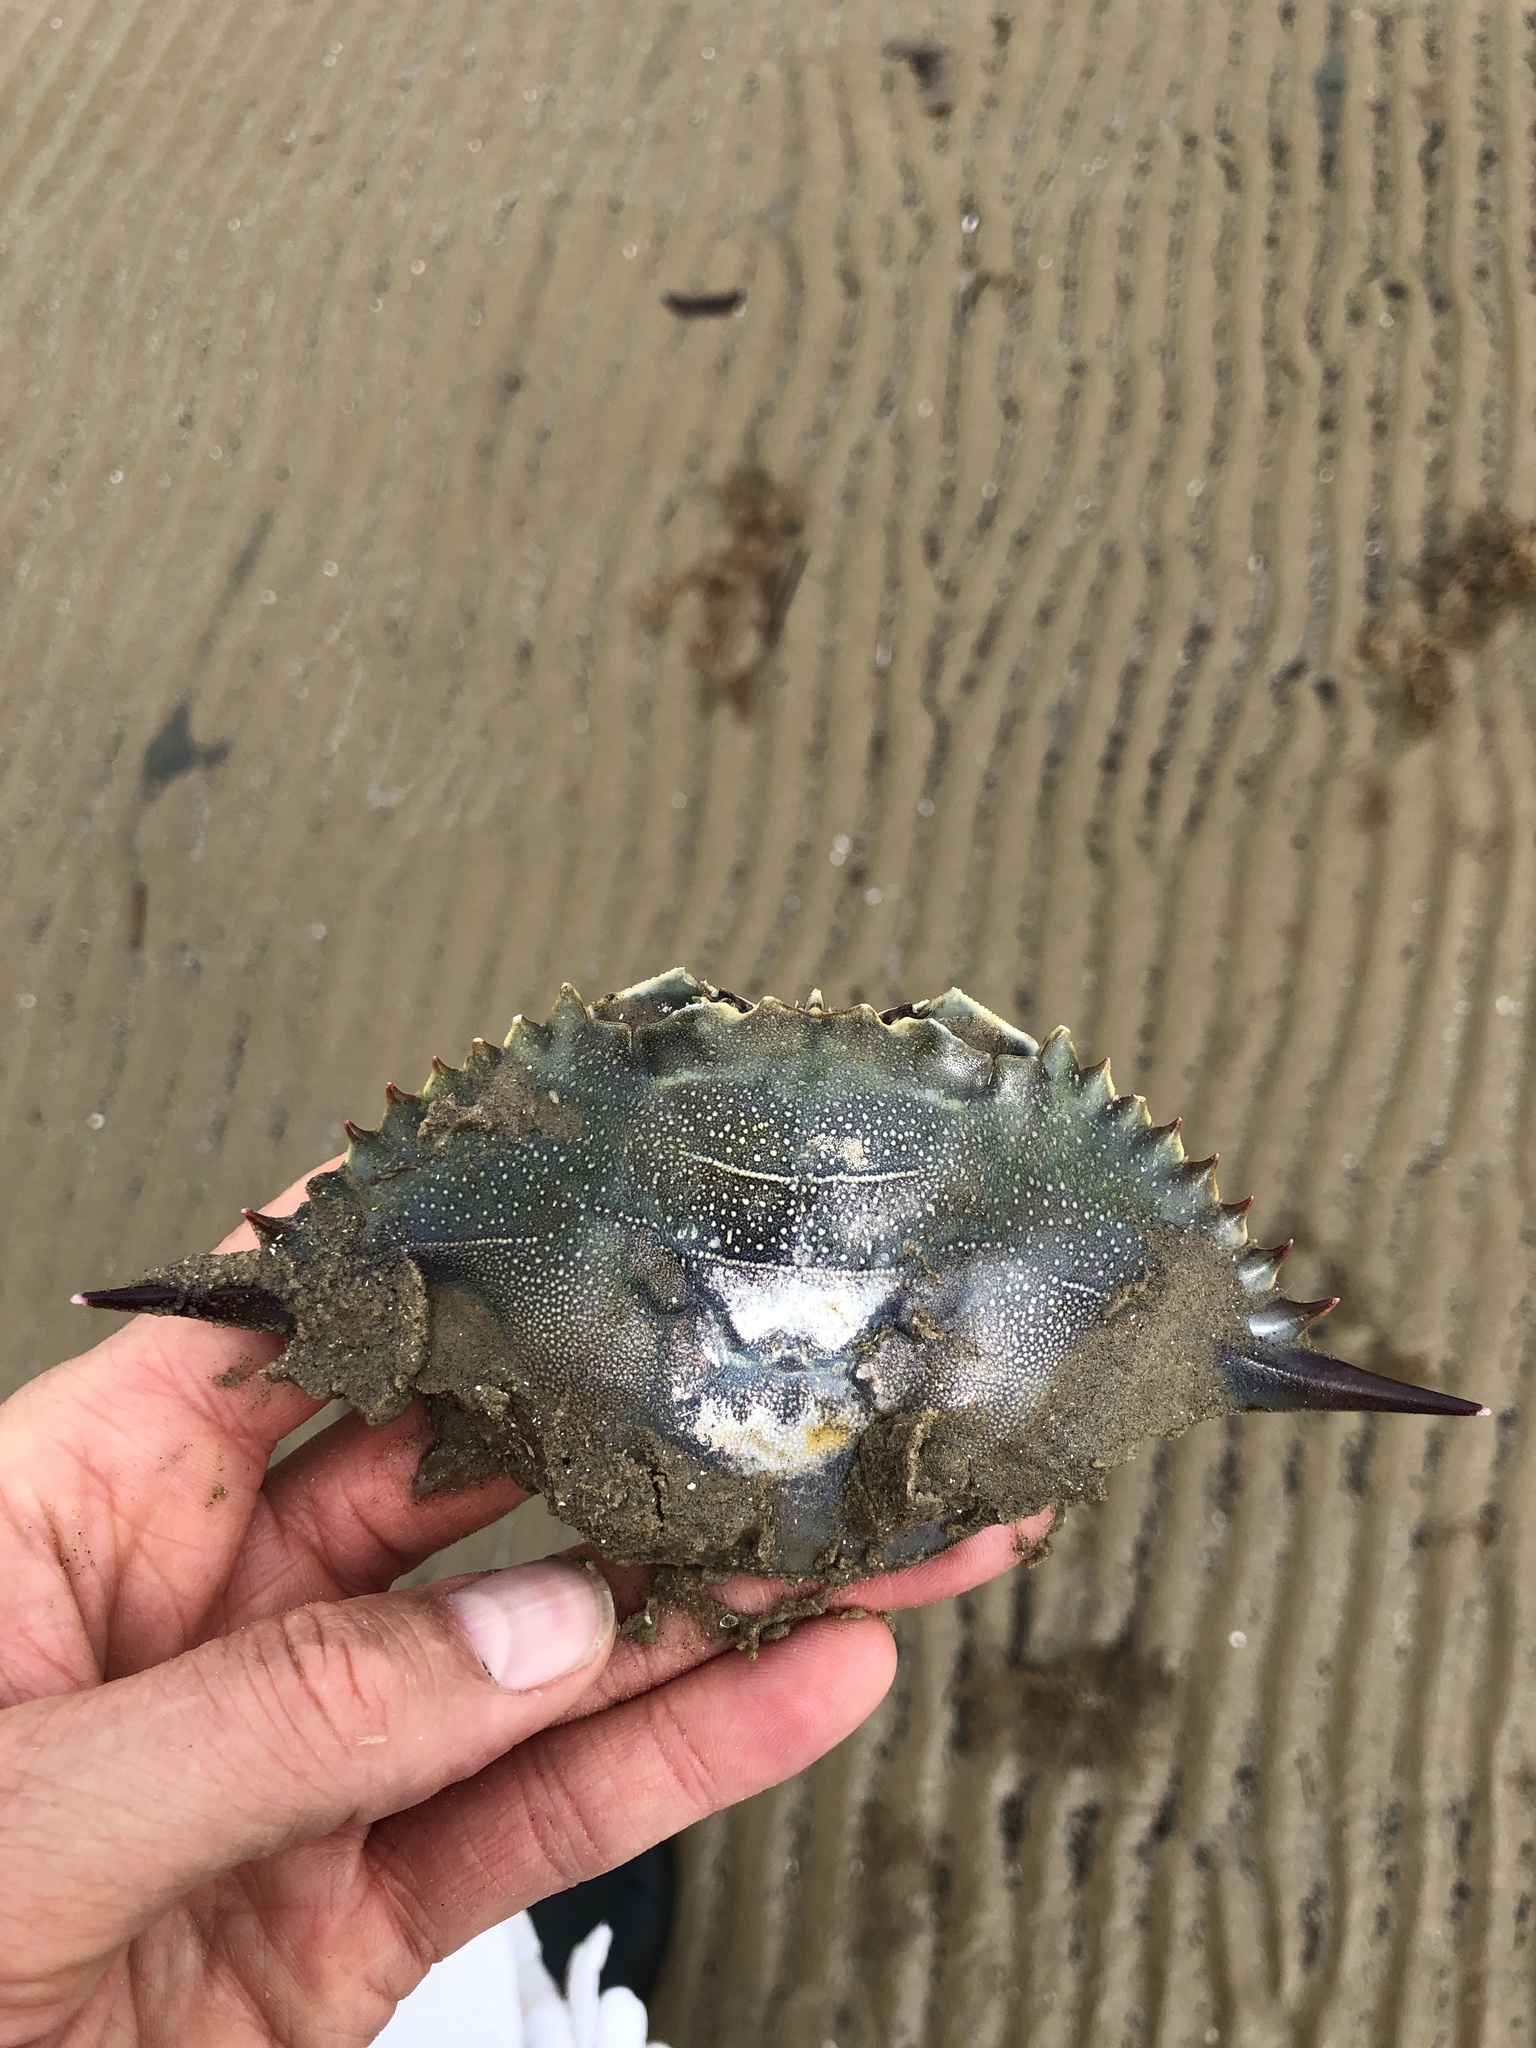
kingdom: Animalia
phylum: Arthropoda
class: Malacostraca
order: Decapoda
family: Portunidae
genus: Callinectes
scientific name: Callinectes sapidus
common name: Blue crab
